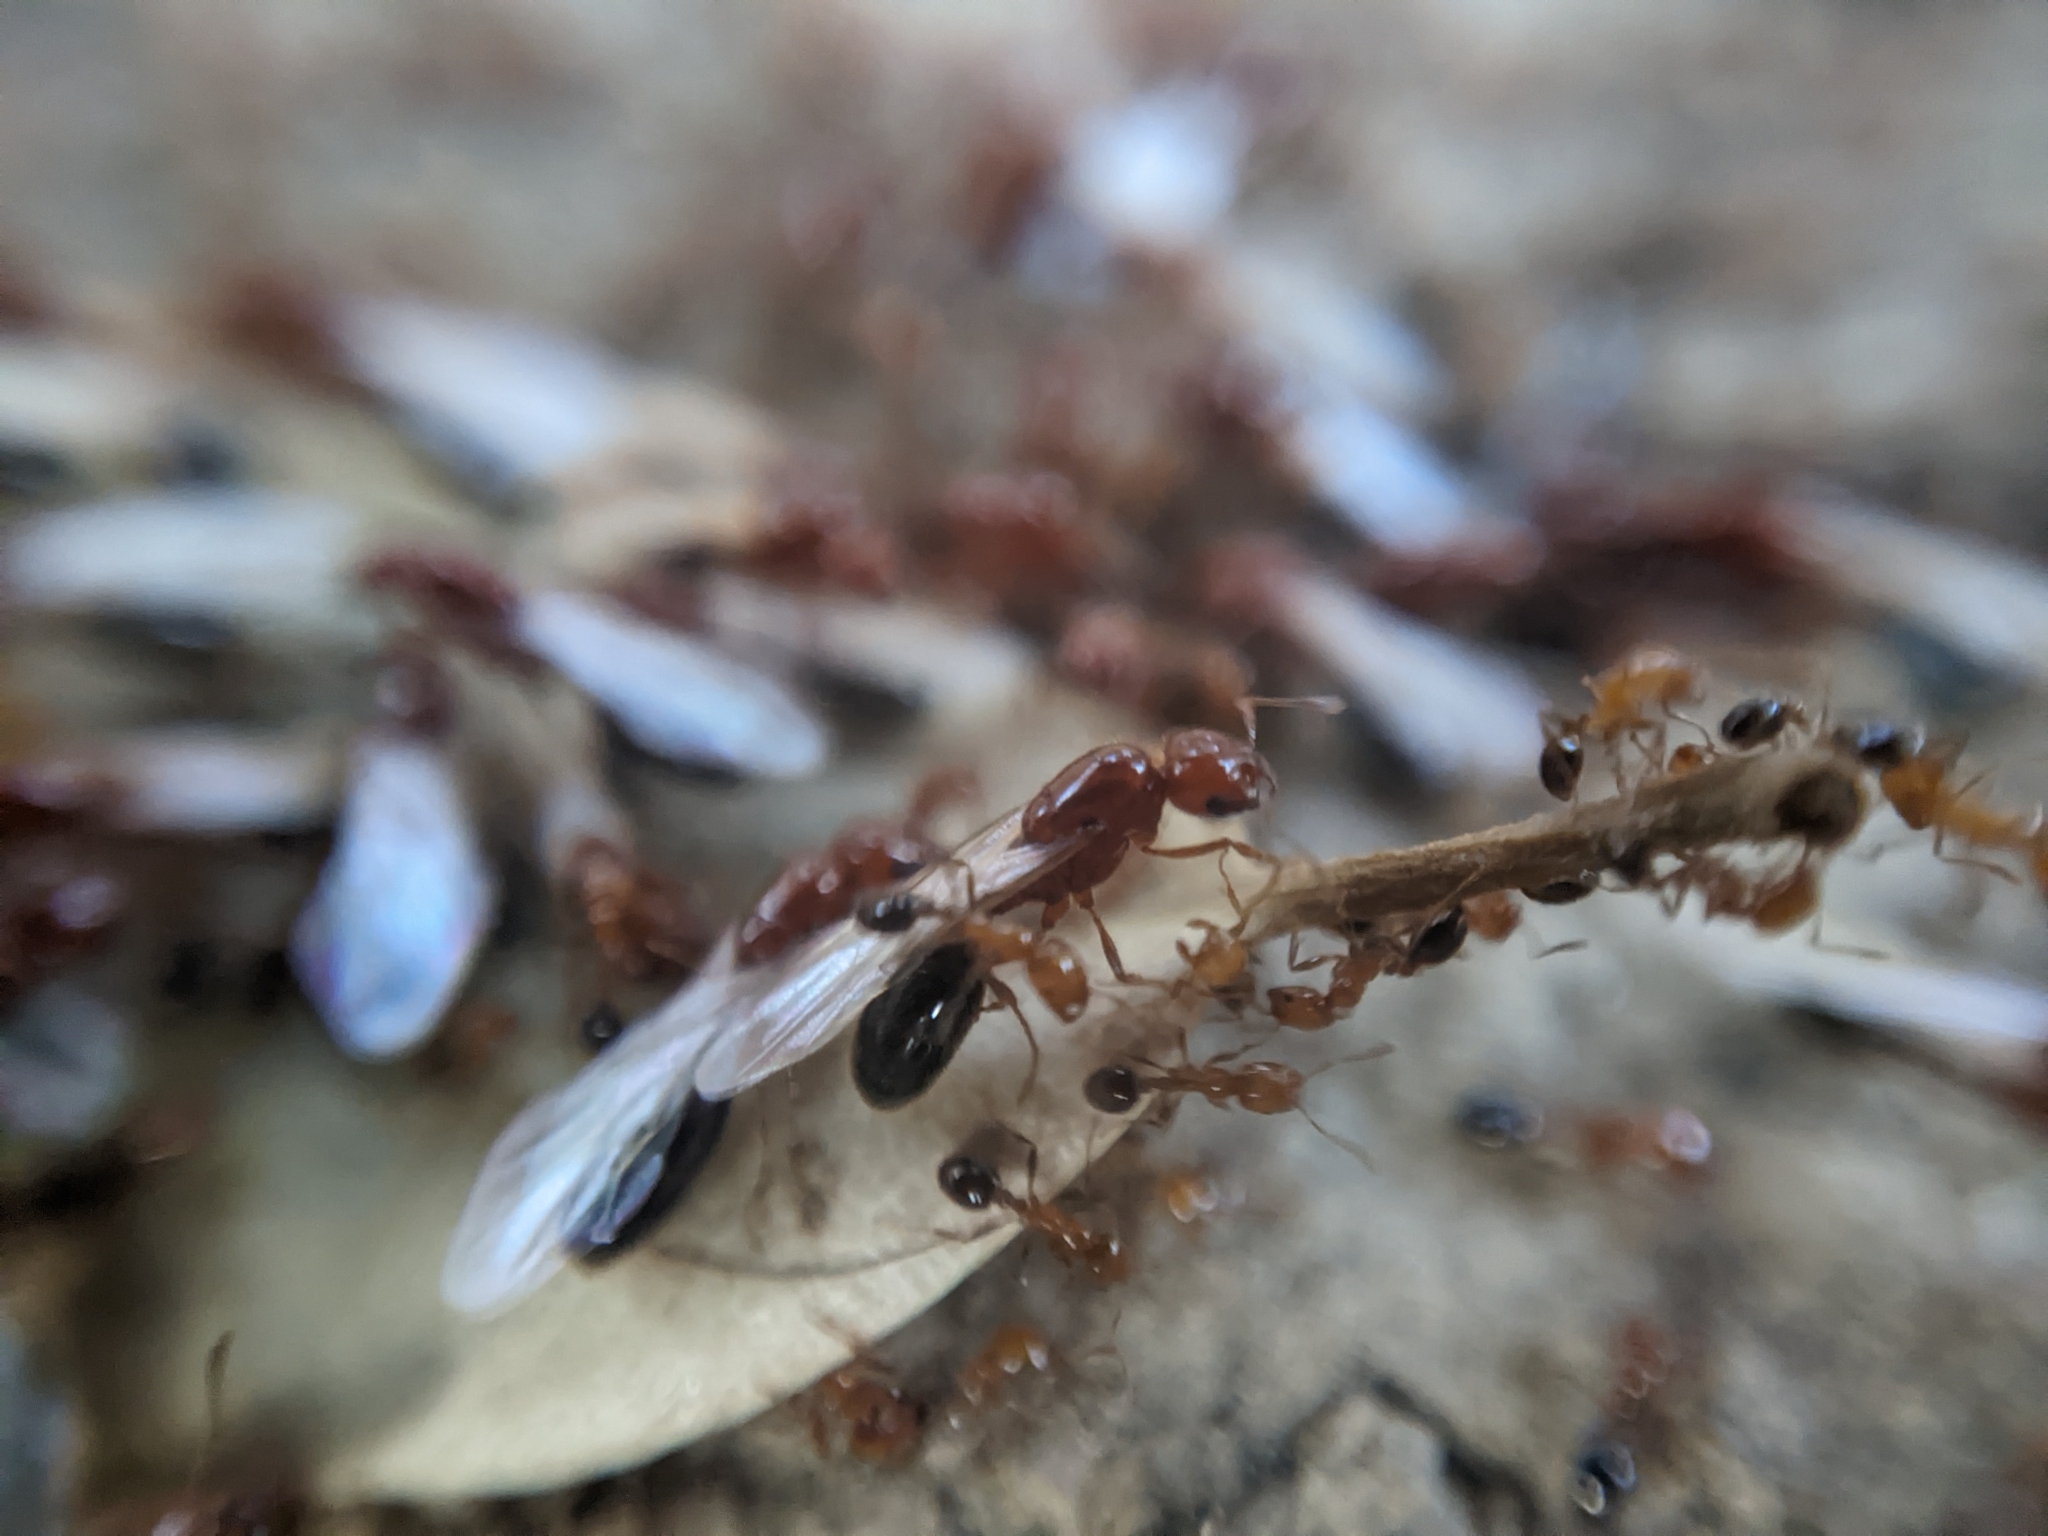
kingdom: Animalia
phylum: Arthropoda
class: Insecta
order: Hymenoptera
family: Formicidae
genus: Solenopsis
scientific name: Solenopsis xyloni
